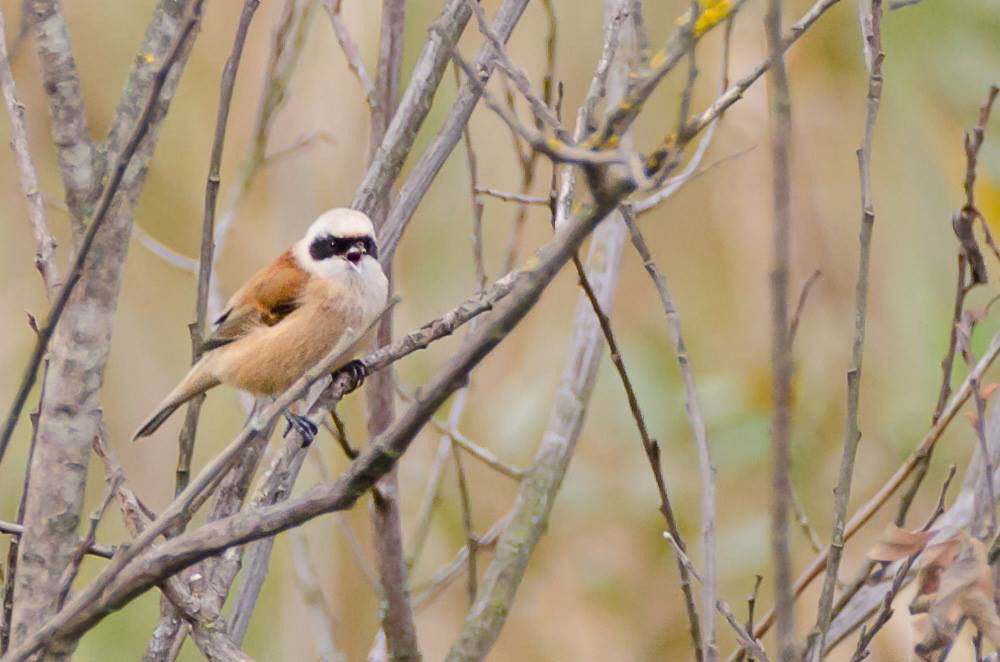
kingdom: Animalia
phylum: Chordata
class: Aves
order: Passeriformes
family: Remizidae
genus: Remiz
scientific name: Remiz pendulinus
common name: Eurasian penduline tit
